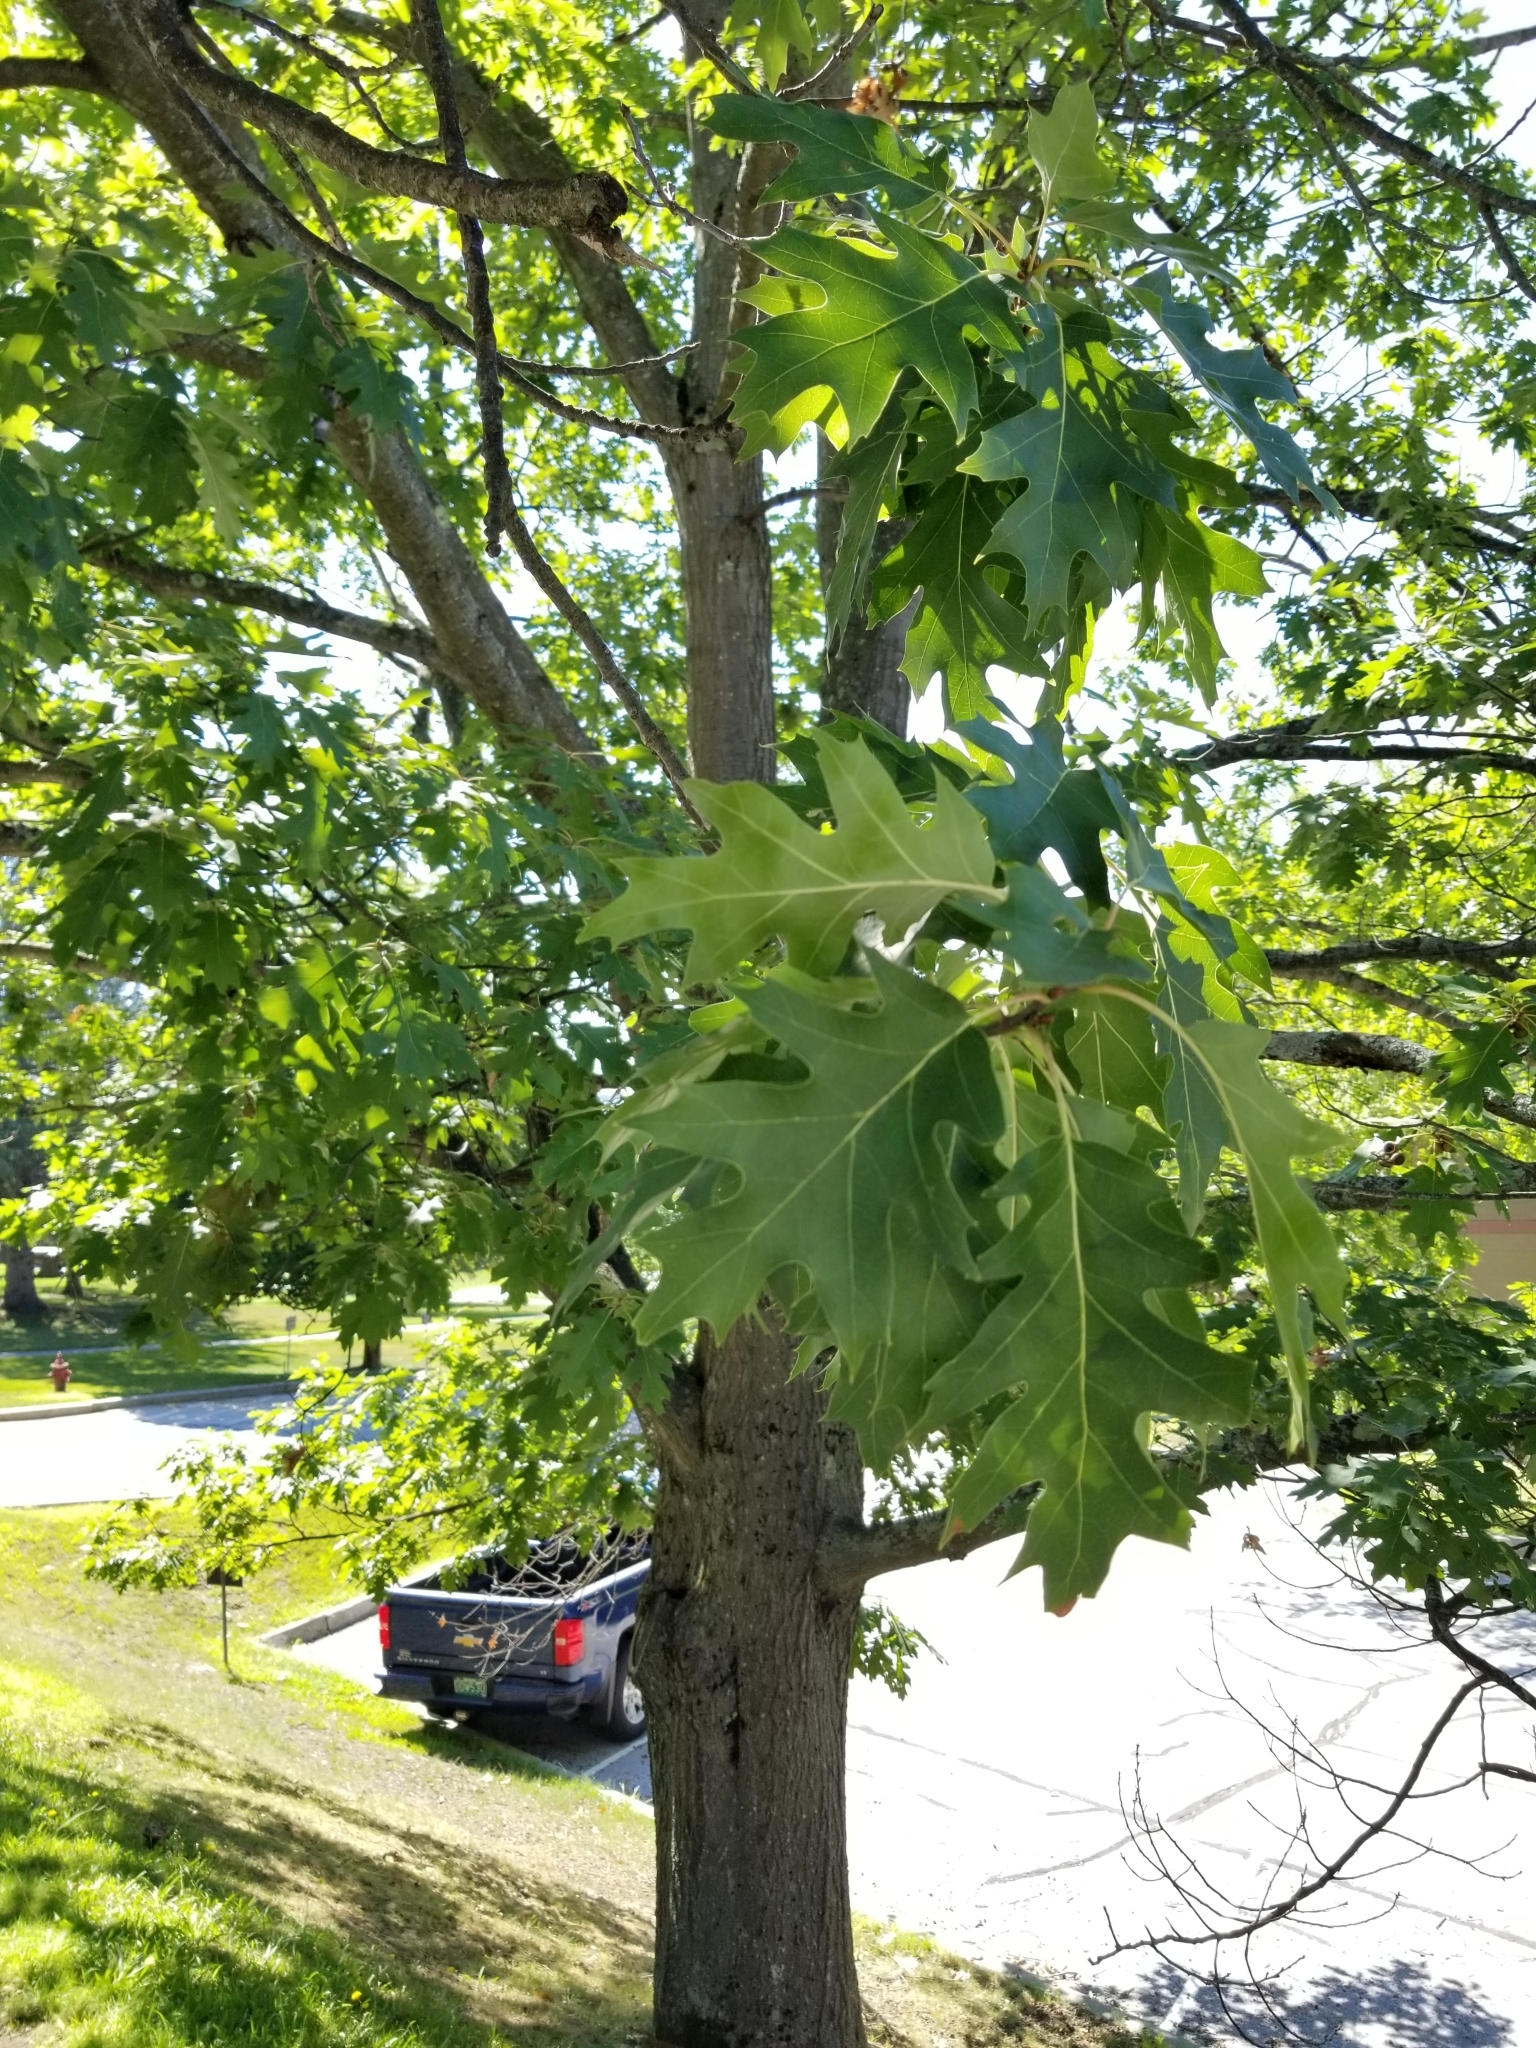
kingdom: Plantae
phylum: Tracheophyta
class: Magnoliopsida
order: Fagales
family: Fagaceae
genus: Quercus
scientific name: Quercus rubra
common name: Red oak
